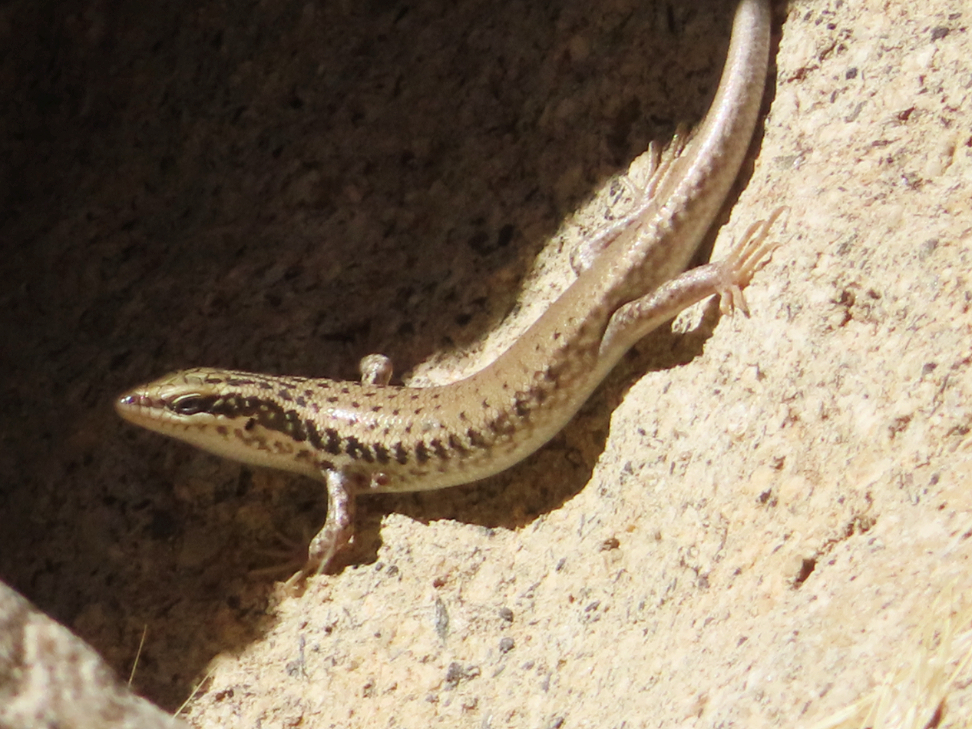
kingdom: Animalia
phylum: Chordata
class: Squamata
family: Scincidae
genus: Heremites
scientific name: Heremites septemtaeniatus
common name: Golden grass mabuya
